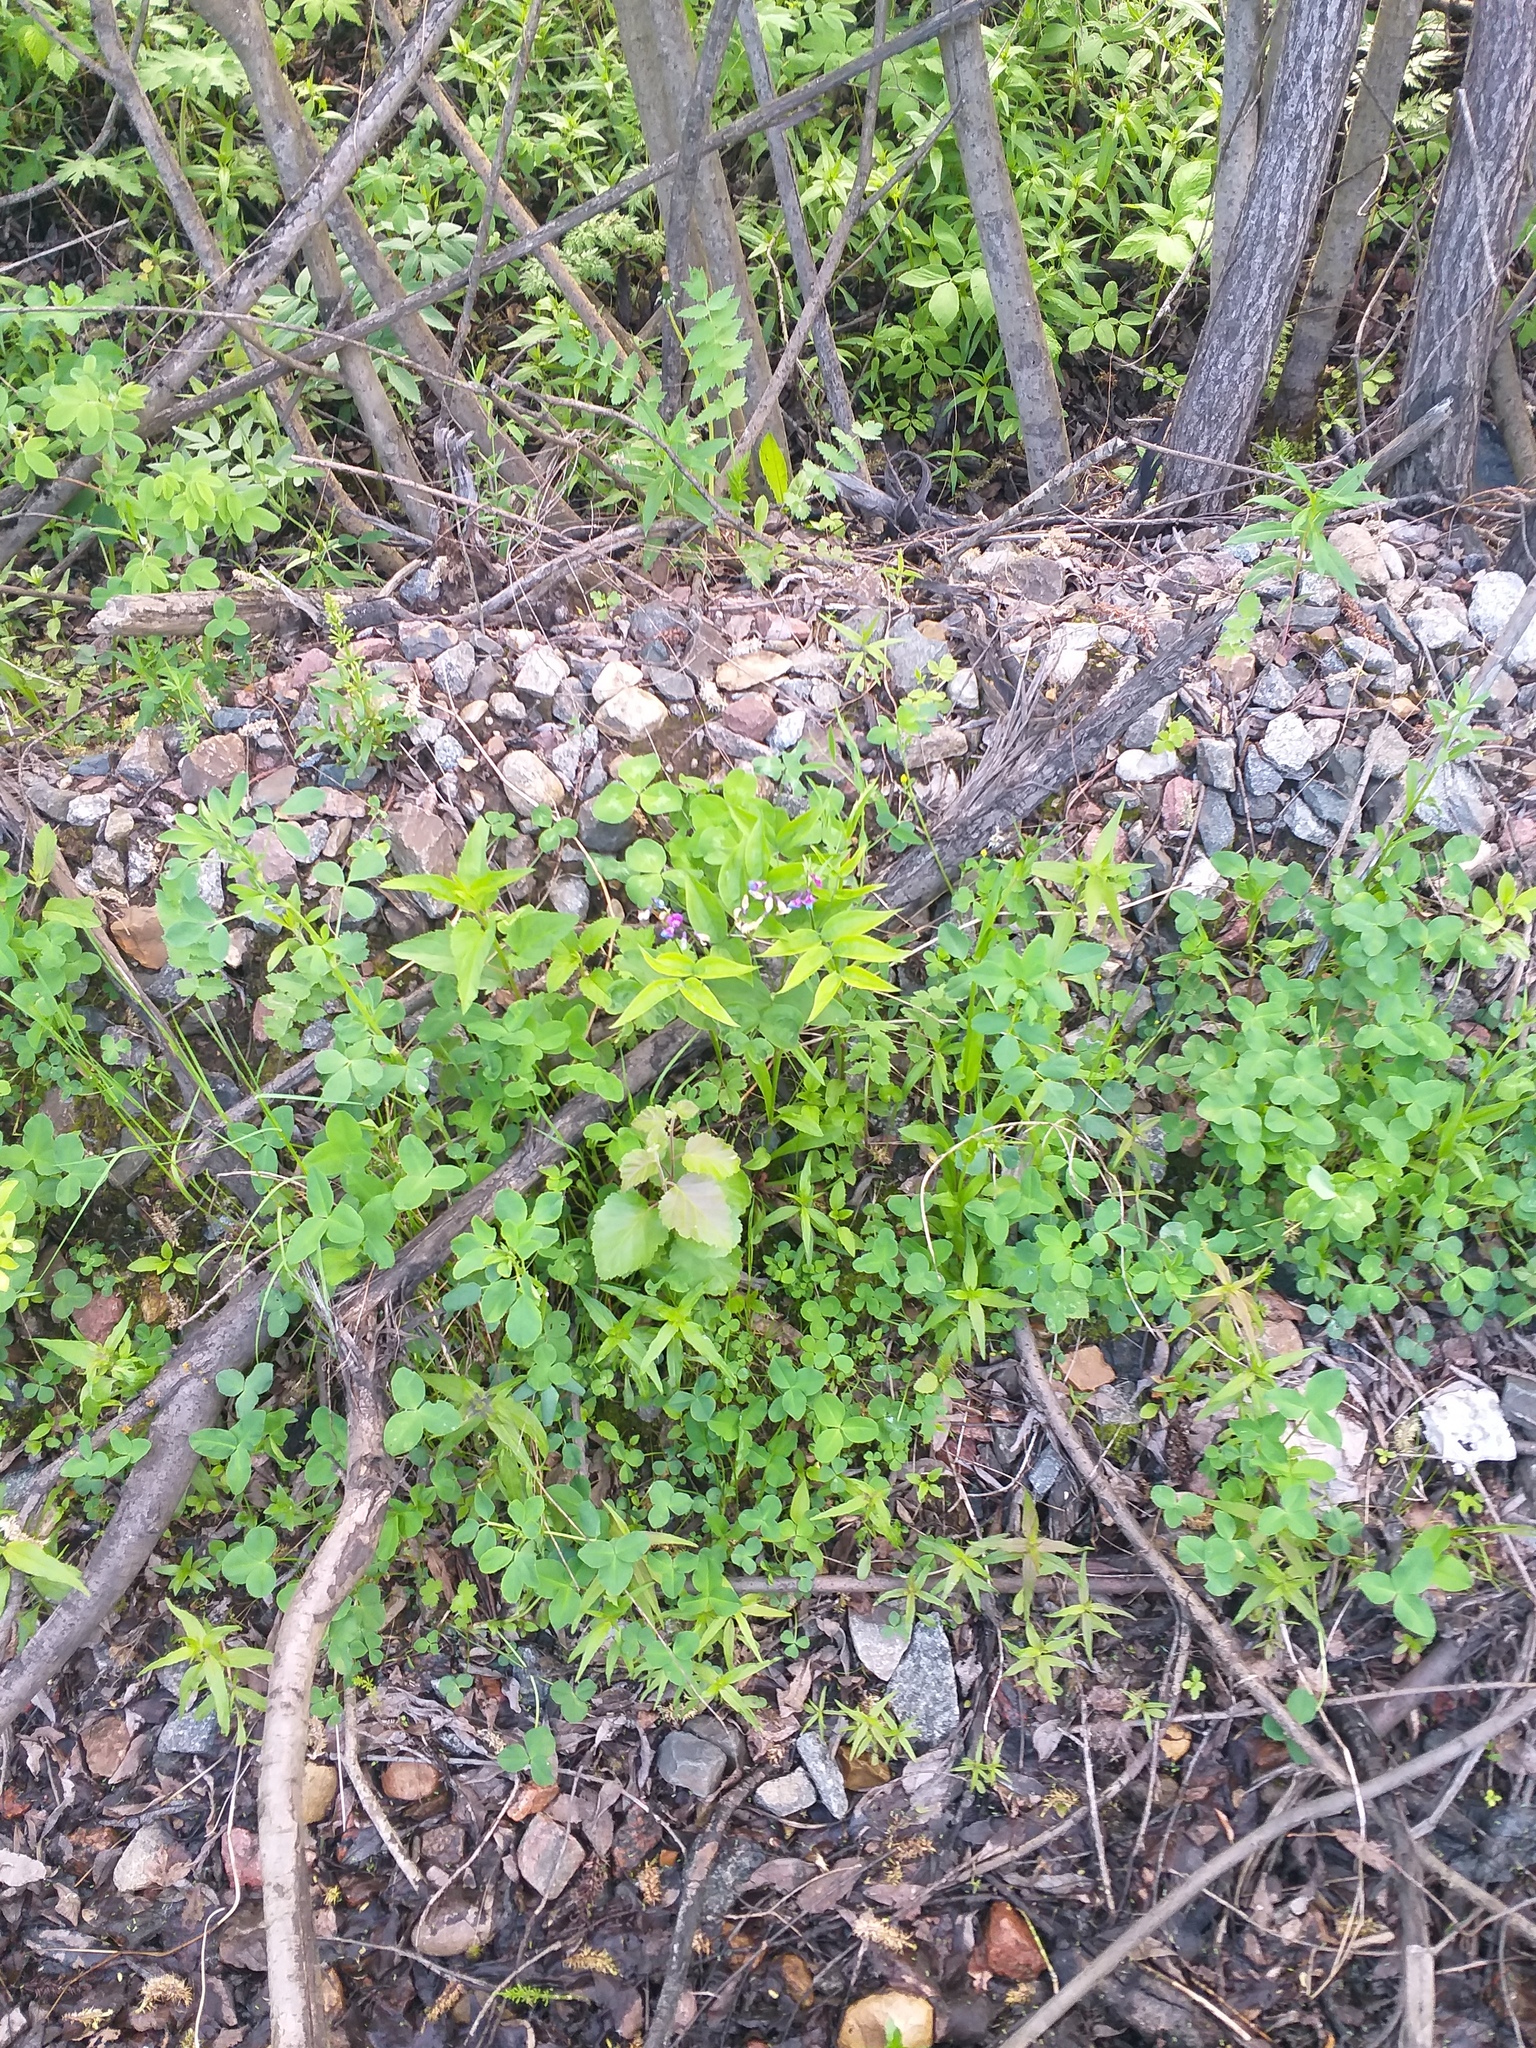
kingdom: Plantae
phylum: Tracheophyta
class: Magnoliopsida
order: Fabales
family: Fabaceae
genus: Lathyrus
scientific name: Lathyrus vernus
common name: Spring pea
